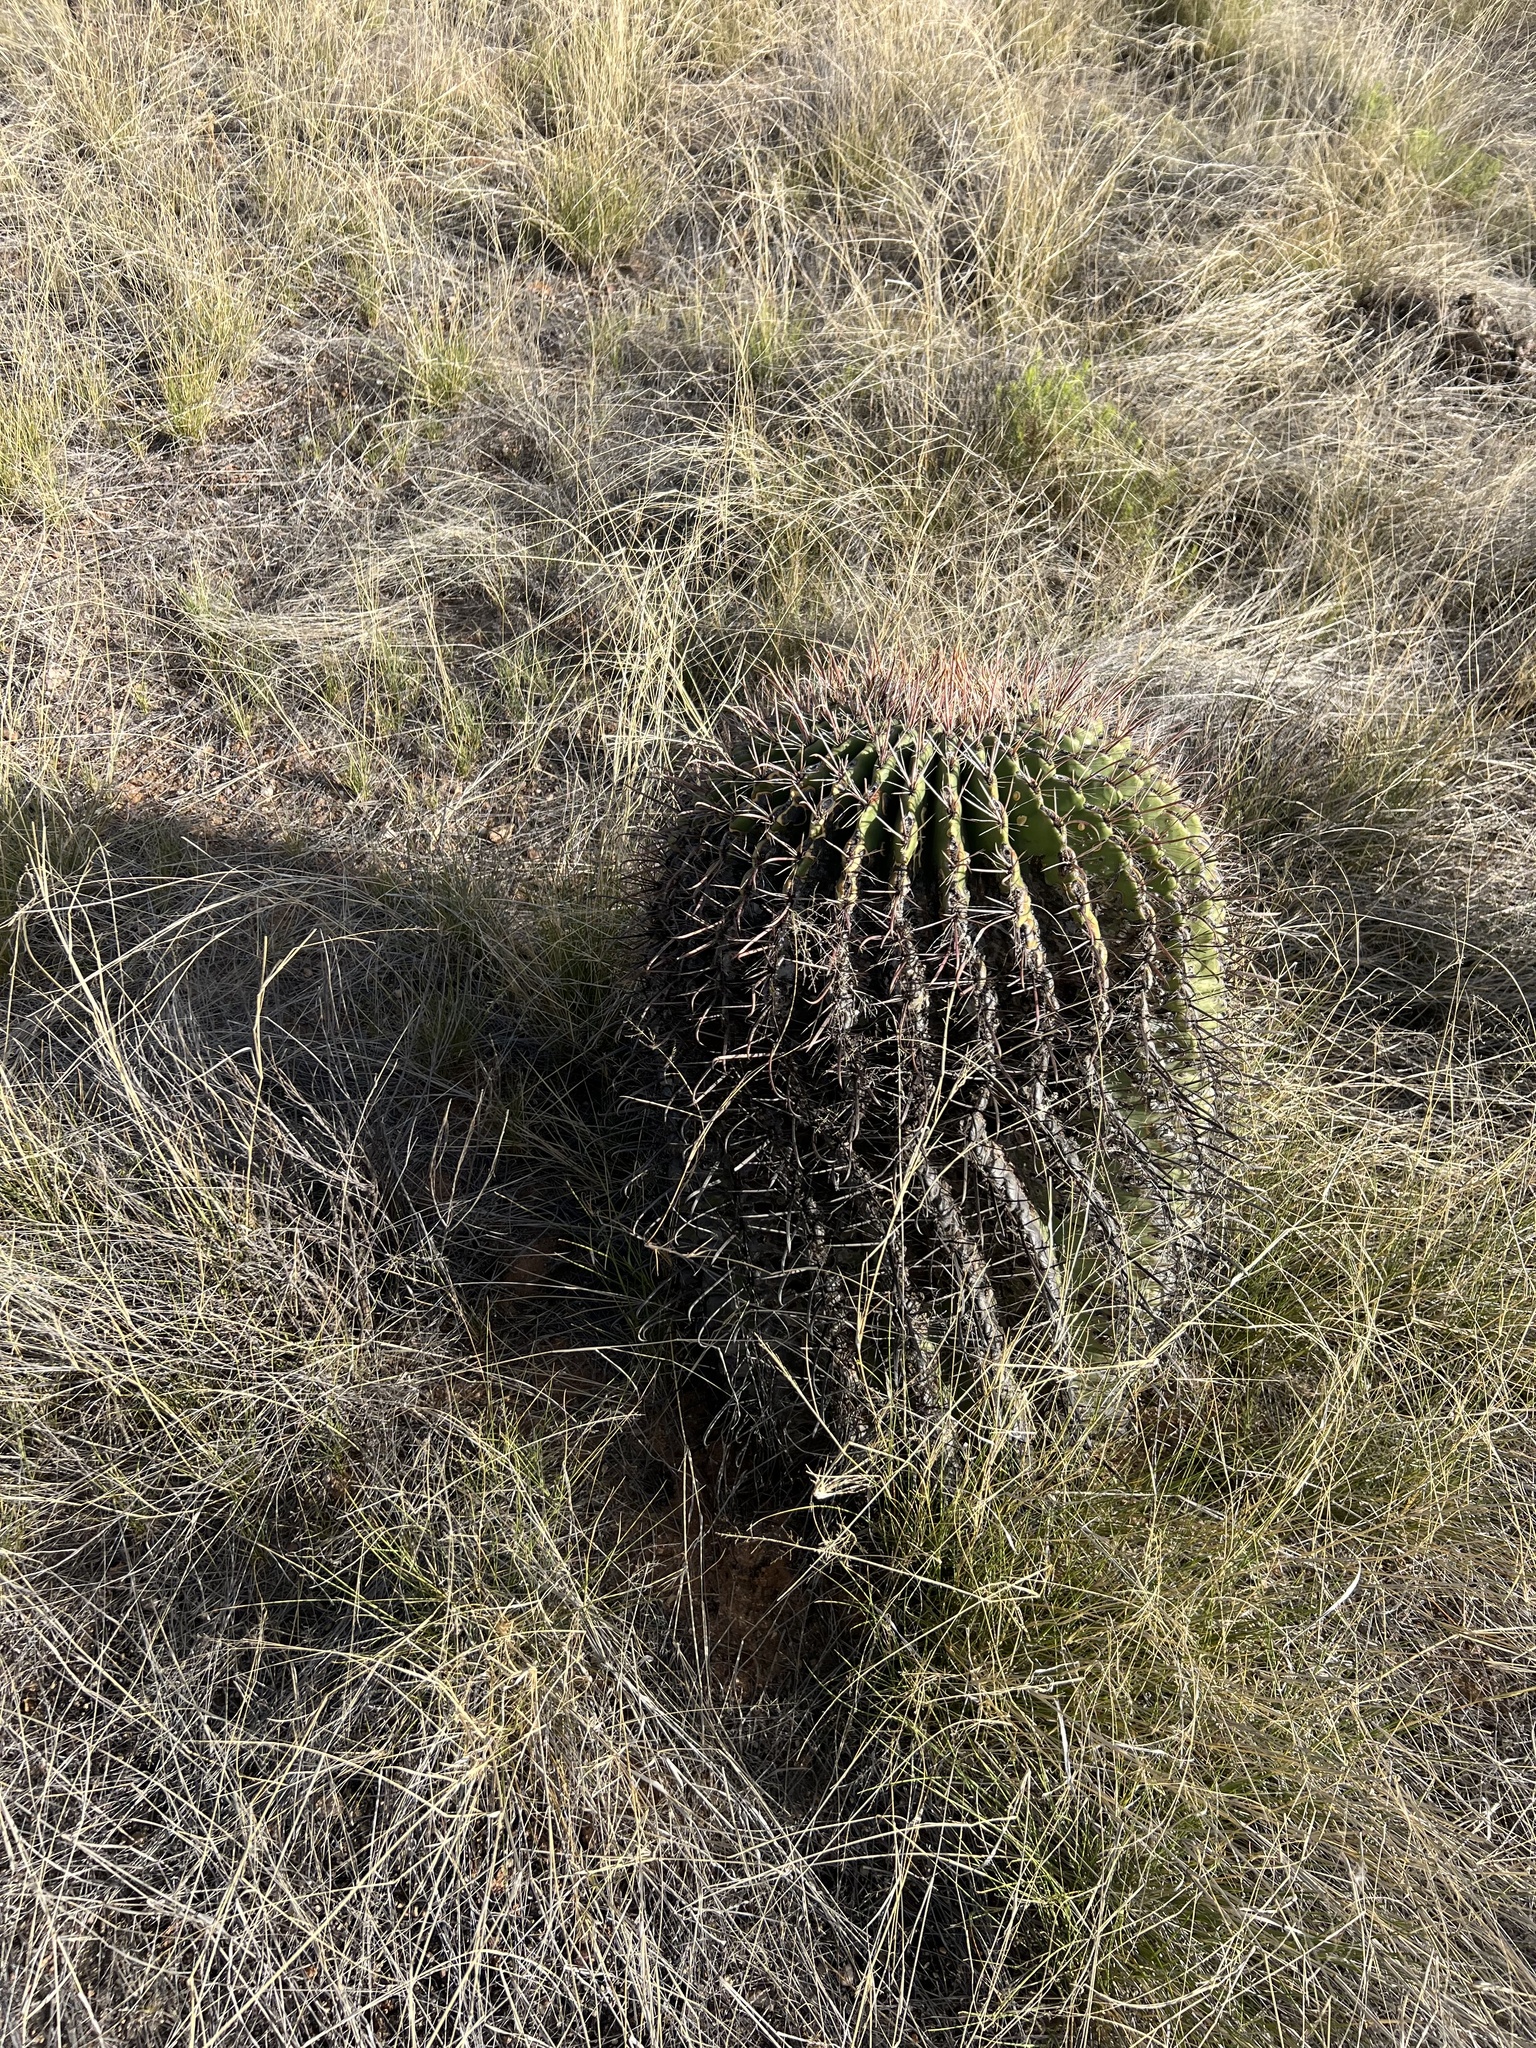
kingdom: Plantae
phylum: Tracheophyta
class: Magnoliopsida
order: Caryophyllales
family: Cactaceae
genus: Ferocactus
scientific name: Ferocactus wislizeni
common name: Candy barrel cactus
